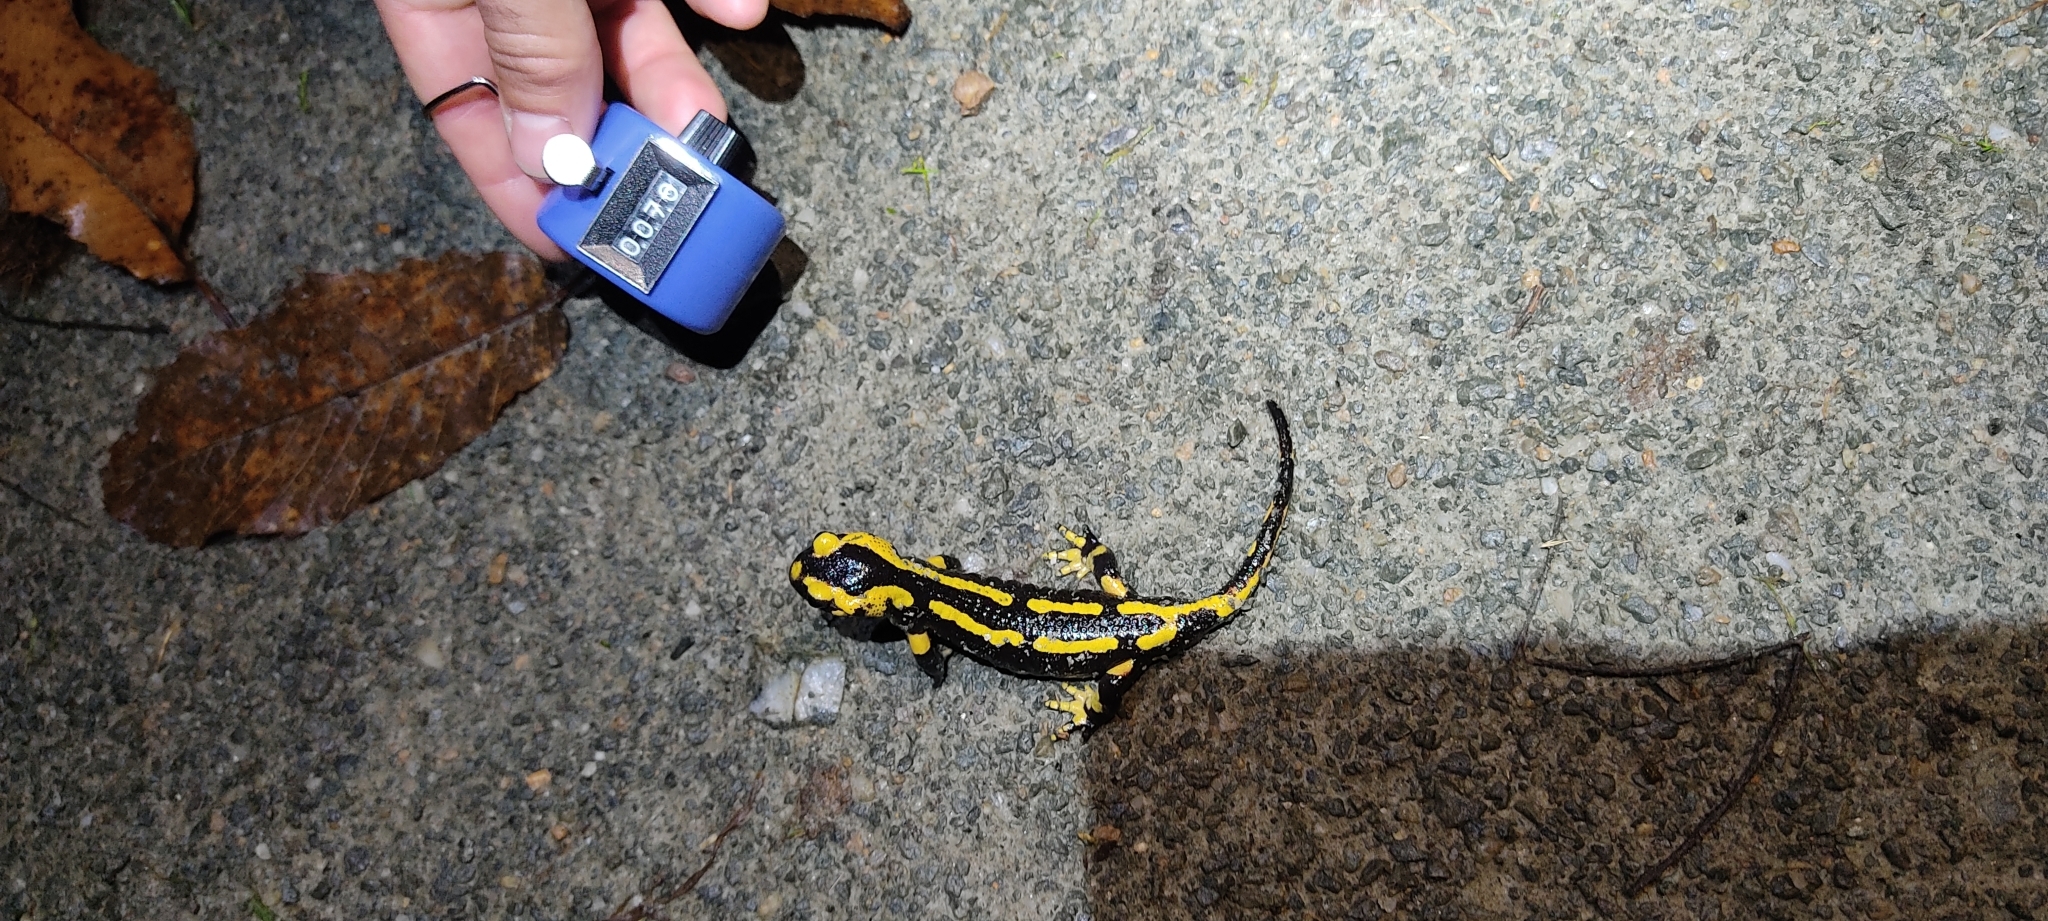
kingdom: Animalia
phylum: Chordata
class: Amphibia
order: Caudata
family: Salamandridae
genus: Salamandra
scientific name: Salamandra salamandra
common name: Fire salamander
